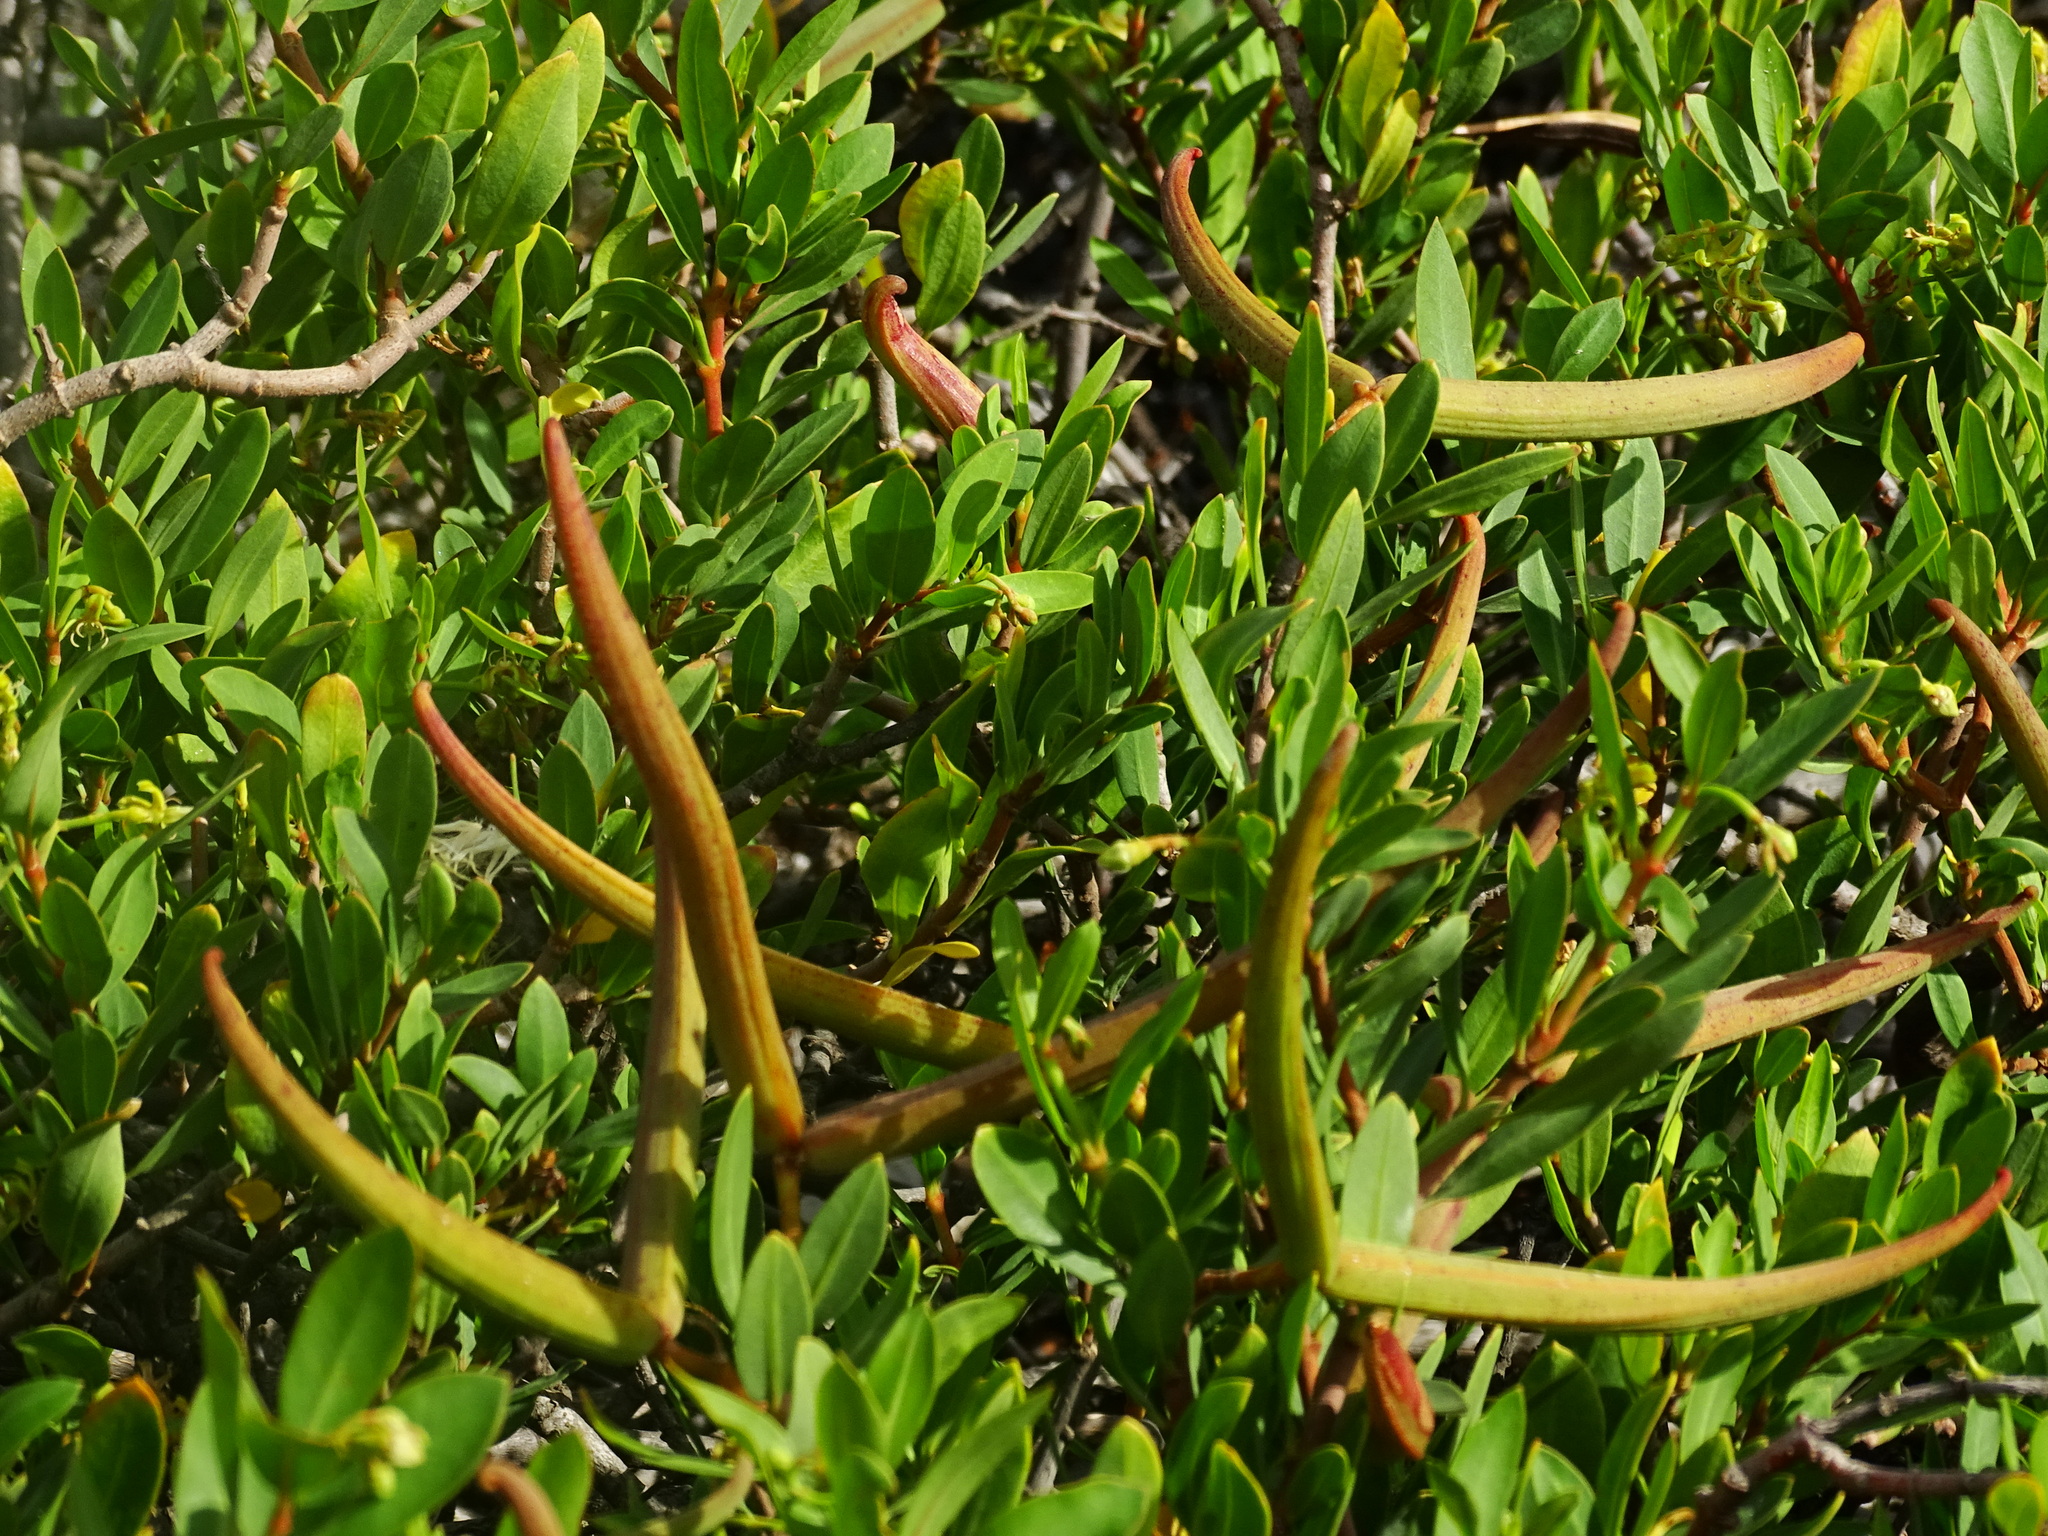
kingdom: Plantae
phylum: Tracheophyta
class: Magnoliopsida
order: Gentianales
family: Apocynaceae
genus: Periploca
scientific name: Periploca laevigata
